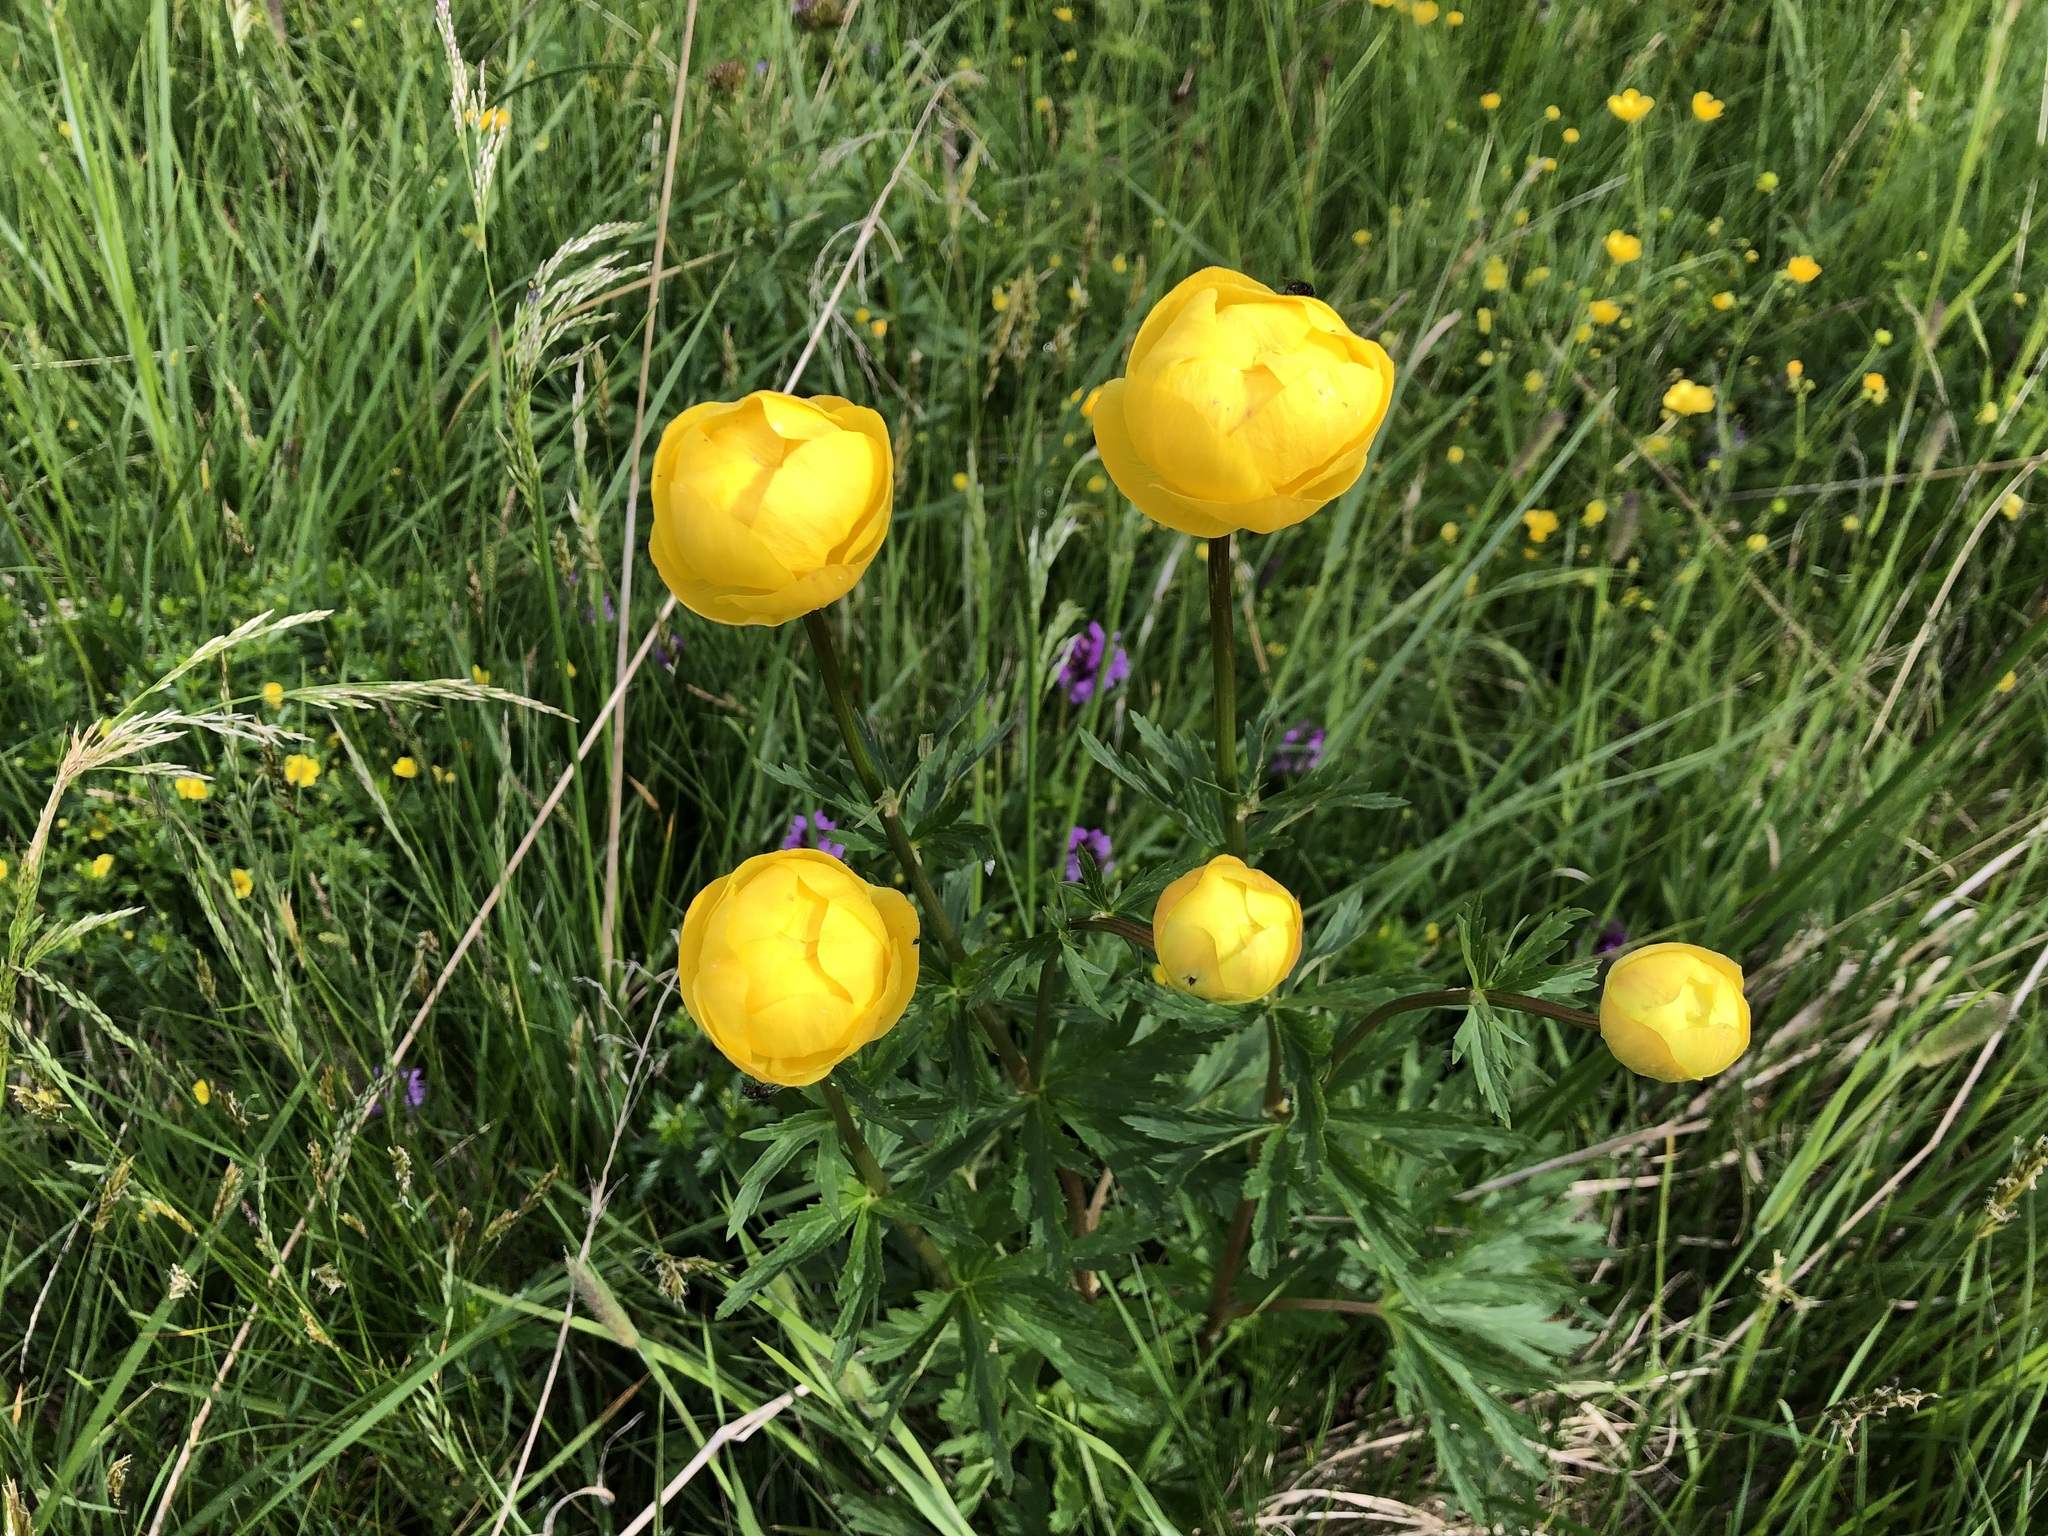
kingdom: Plantae
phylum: Tracheophyta
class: Magnoliopsida
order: Ranunculales
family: Ranunculaceae
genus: Trollius
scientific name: Trollius europaeus
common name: European globeflower
